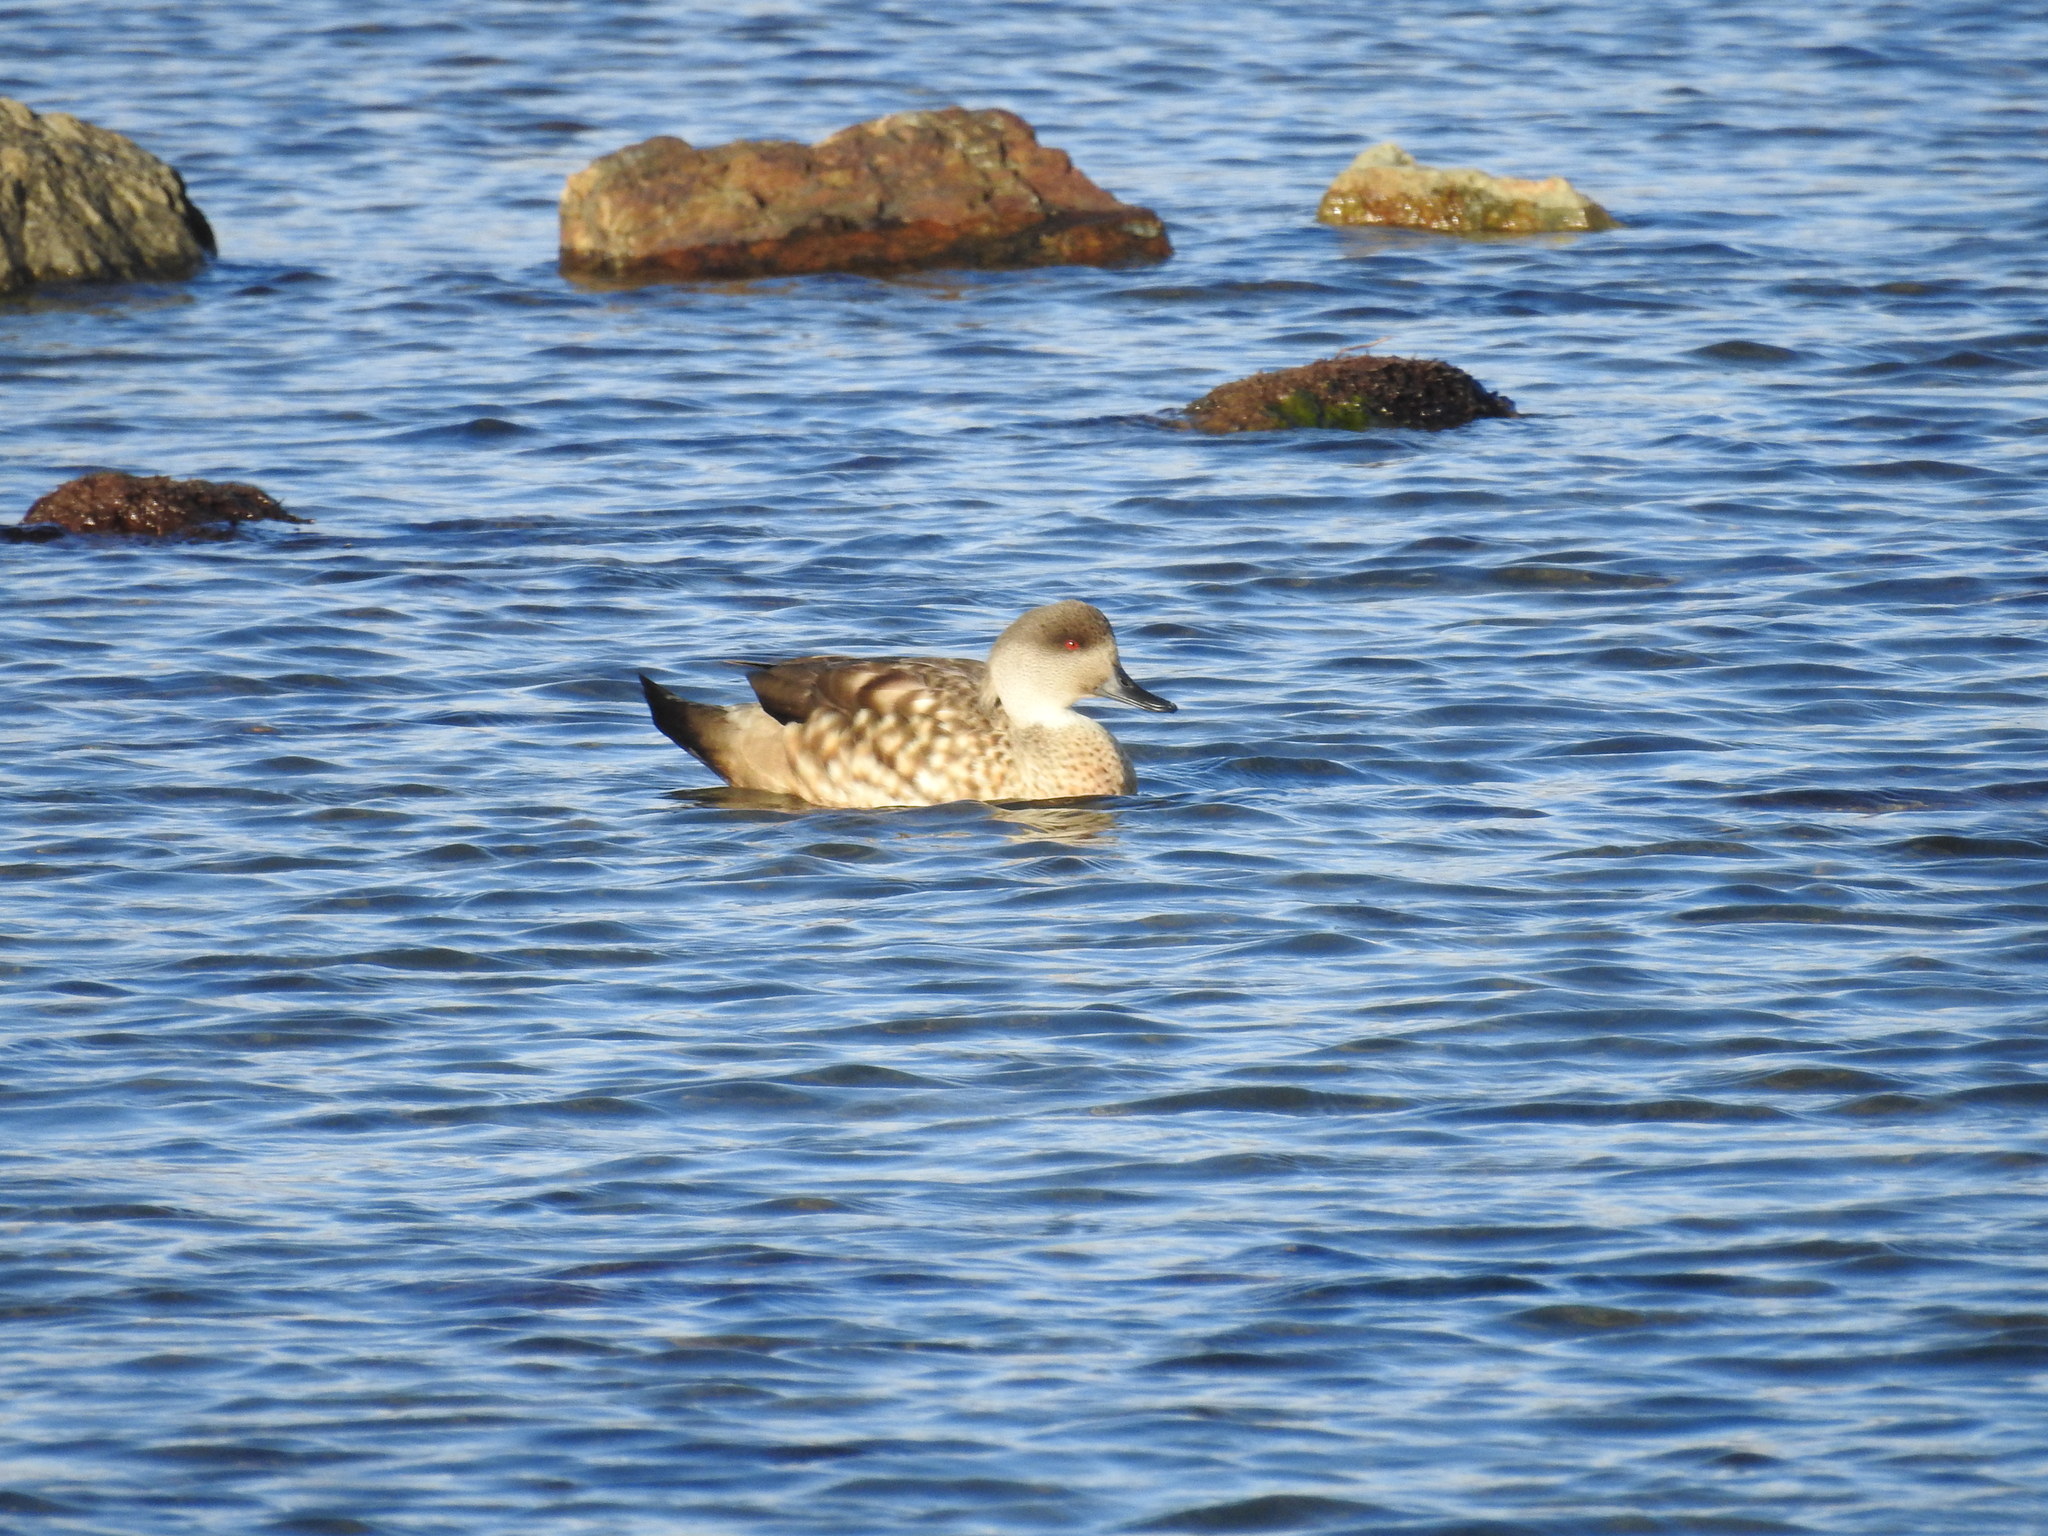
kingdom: Animalia
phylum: Chordata
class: Aves
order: Anseriformes
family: Anatidae
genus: Lophonetta
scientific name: Lophonetta specularioides
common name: Crested duck
